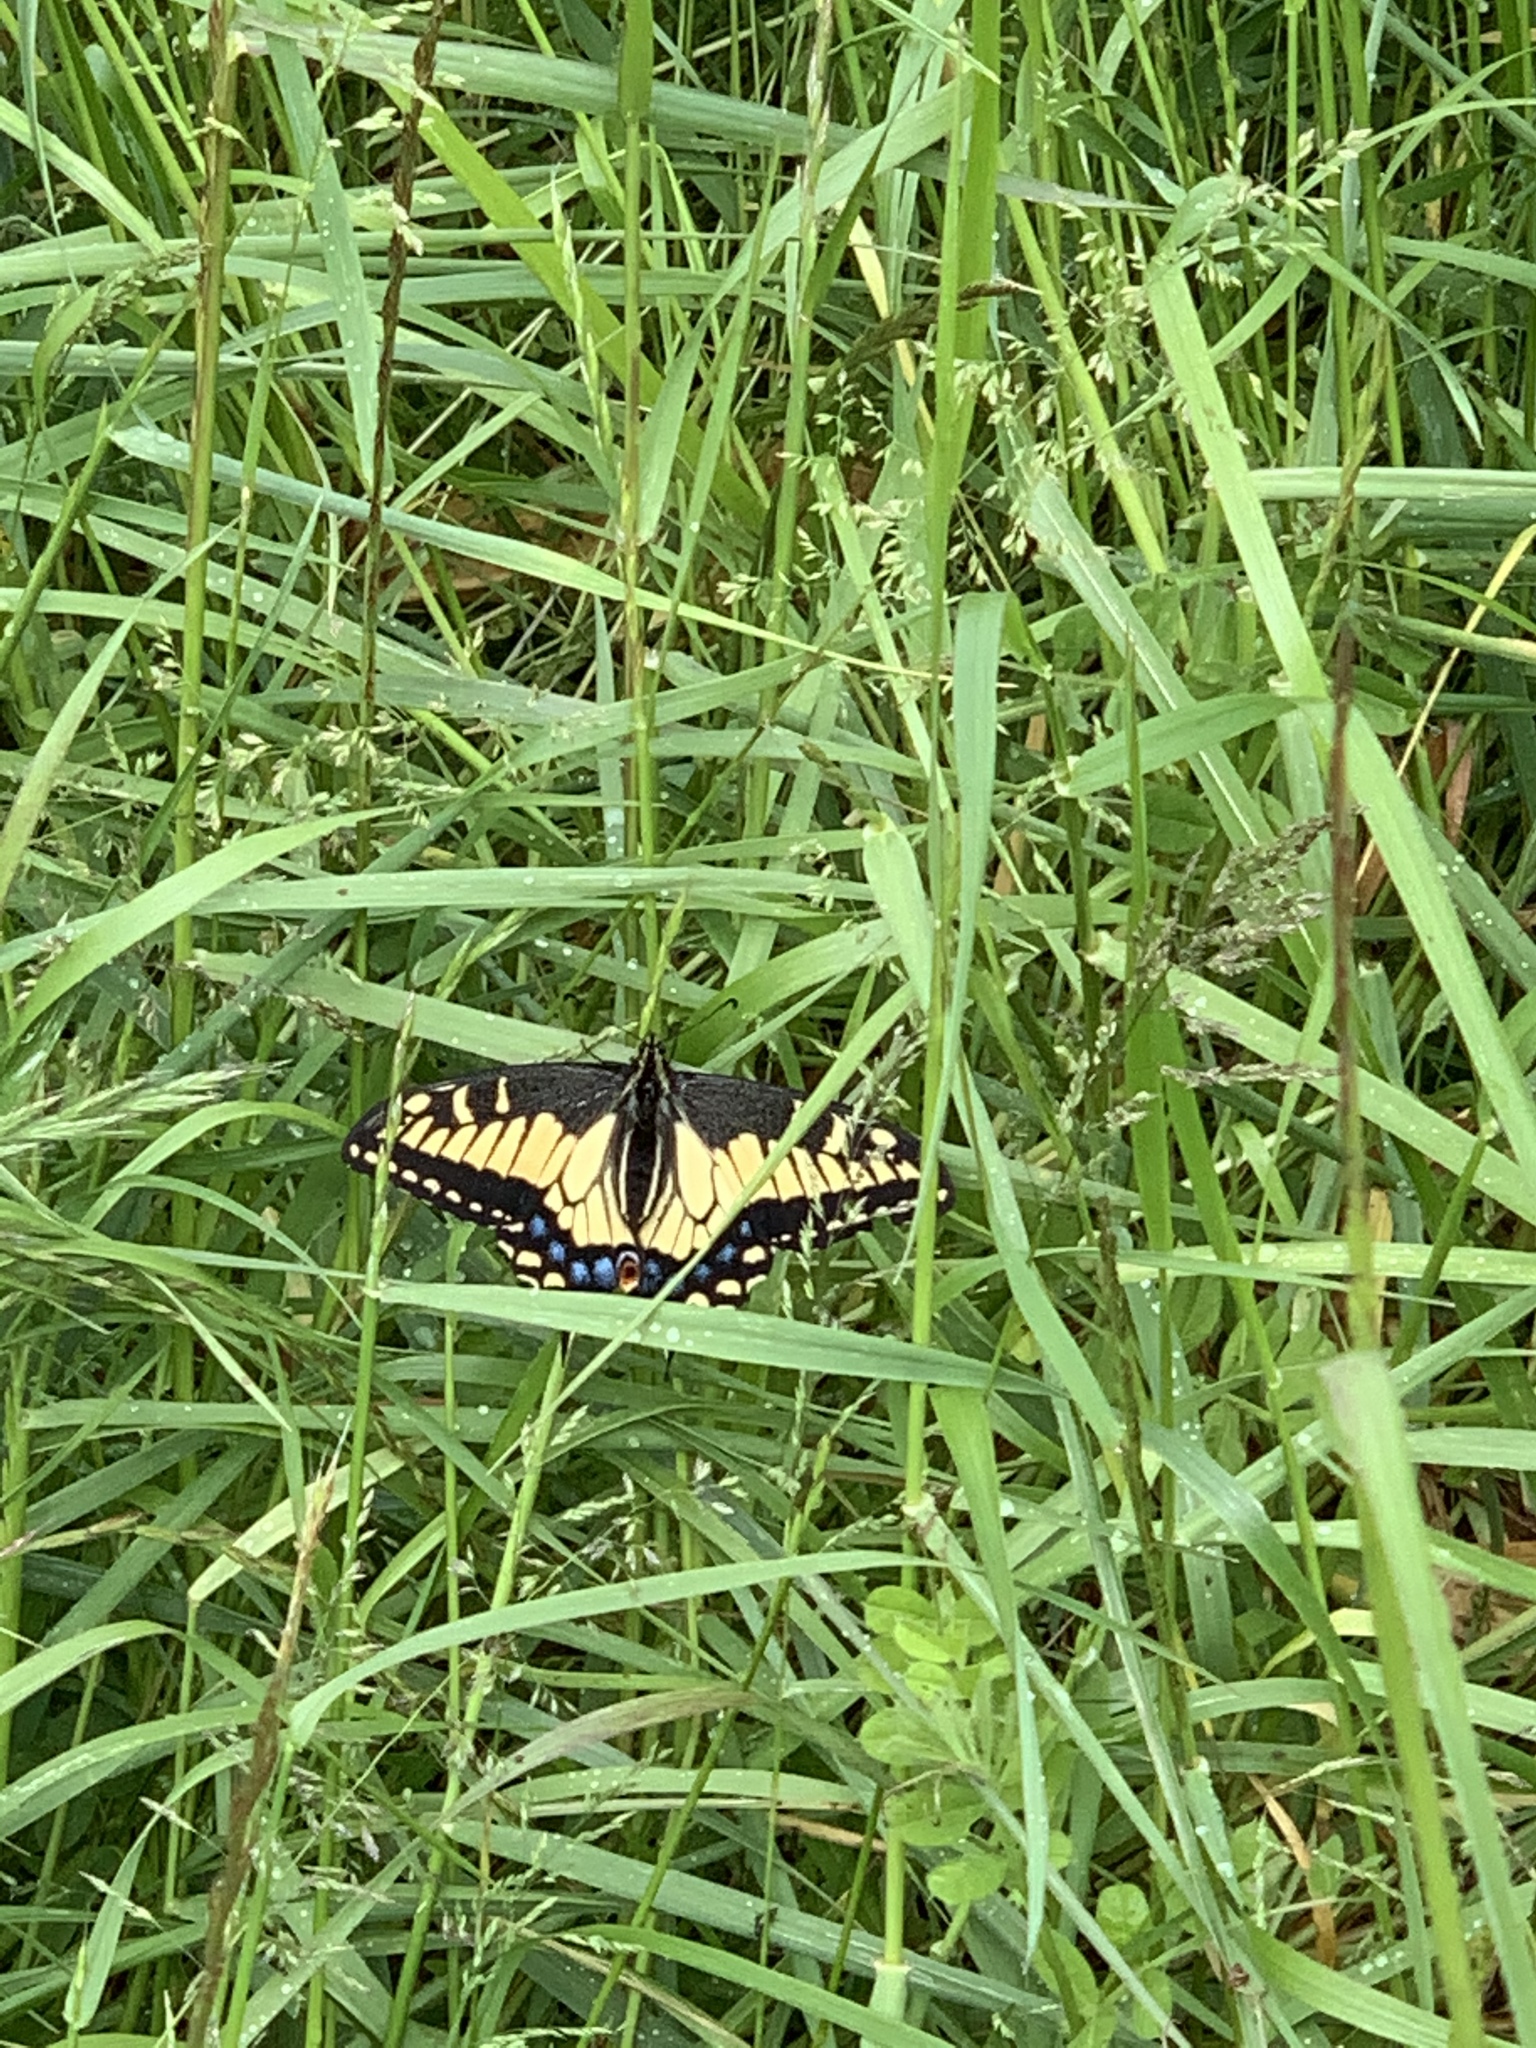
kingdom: Animalia
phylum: Arthropoda
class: Insecta
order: Lepidoptera
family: Papilionidae
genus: Papilio
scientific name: Papilio zelicaon
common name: Anise swallowtail
